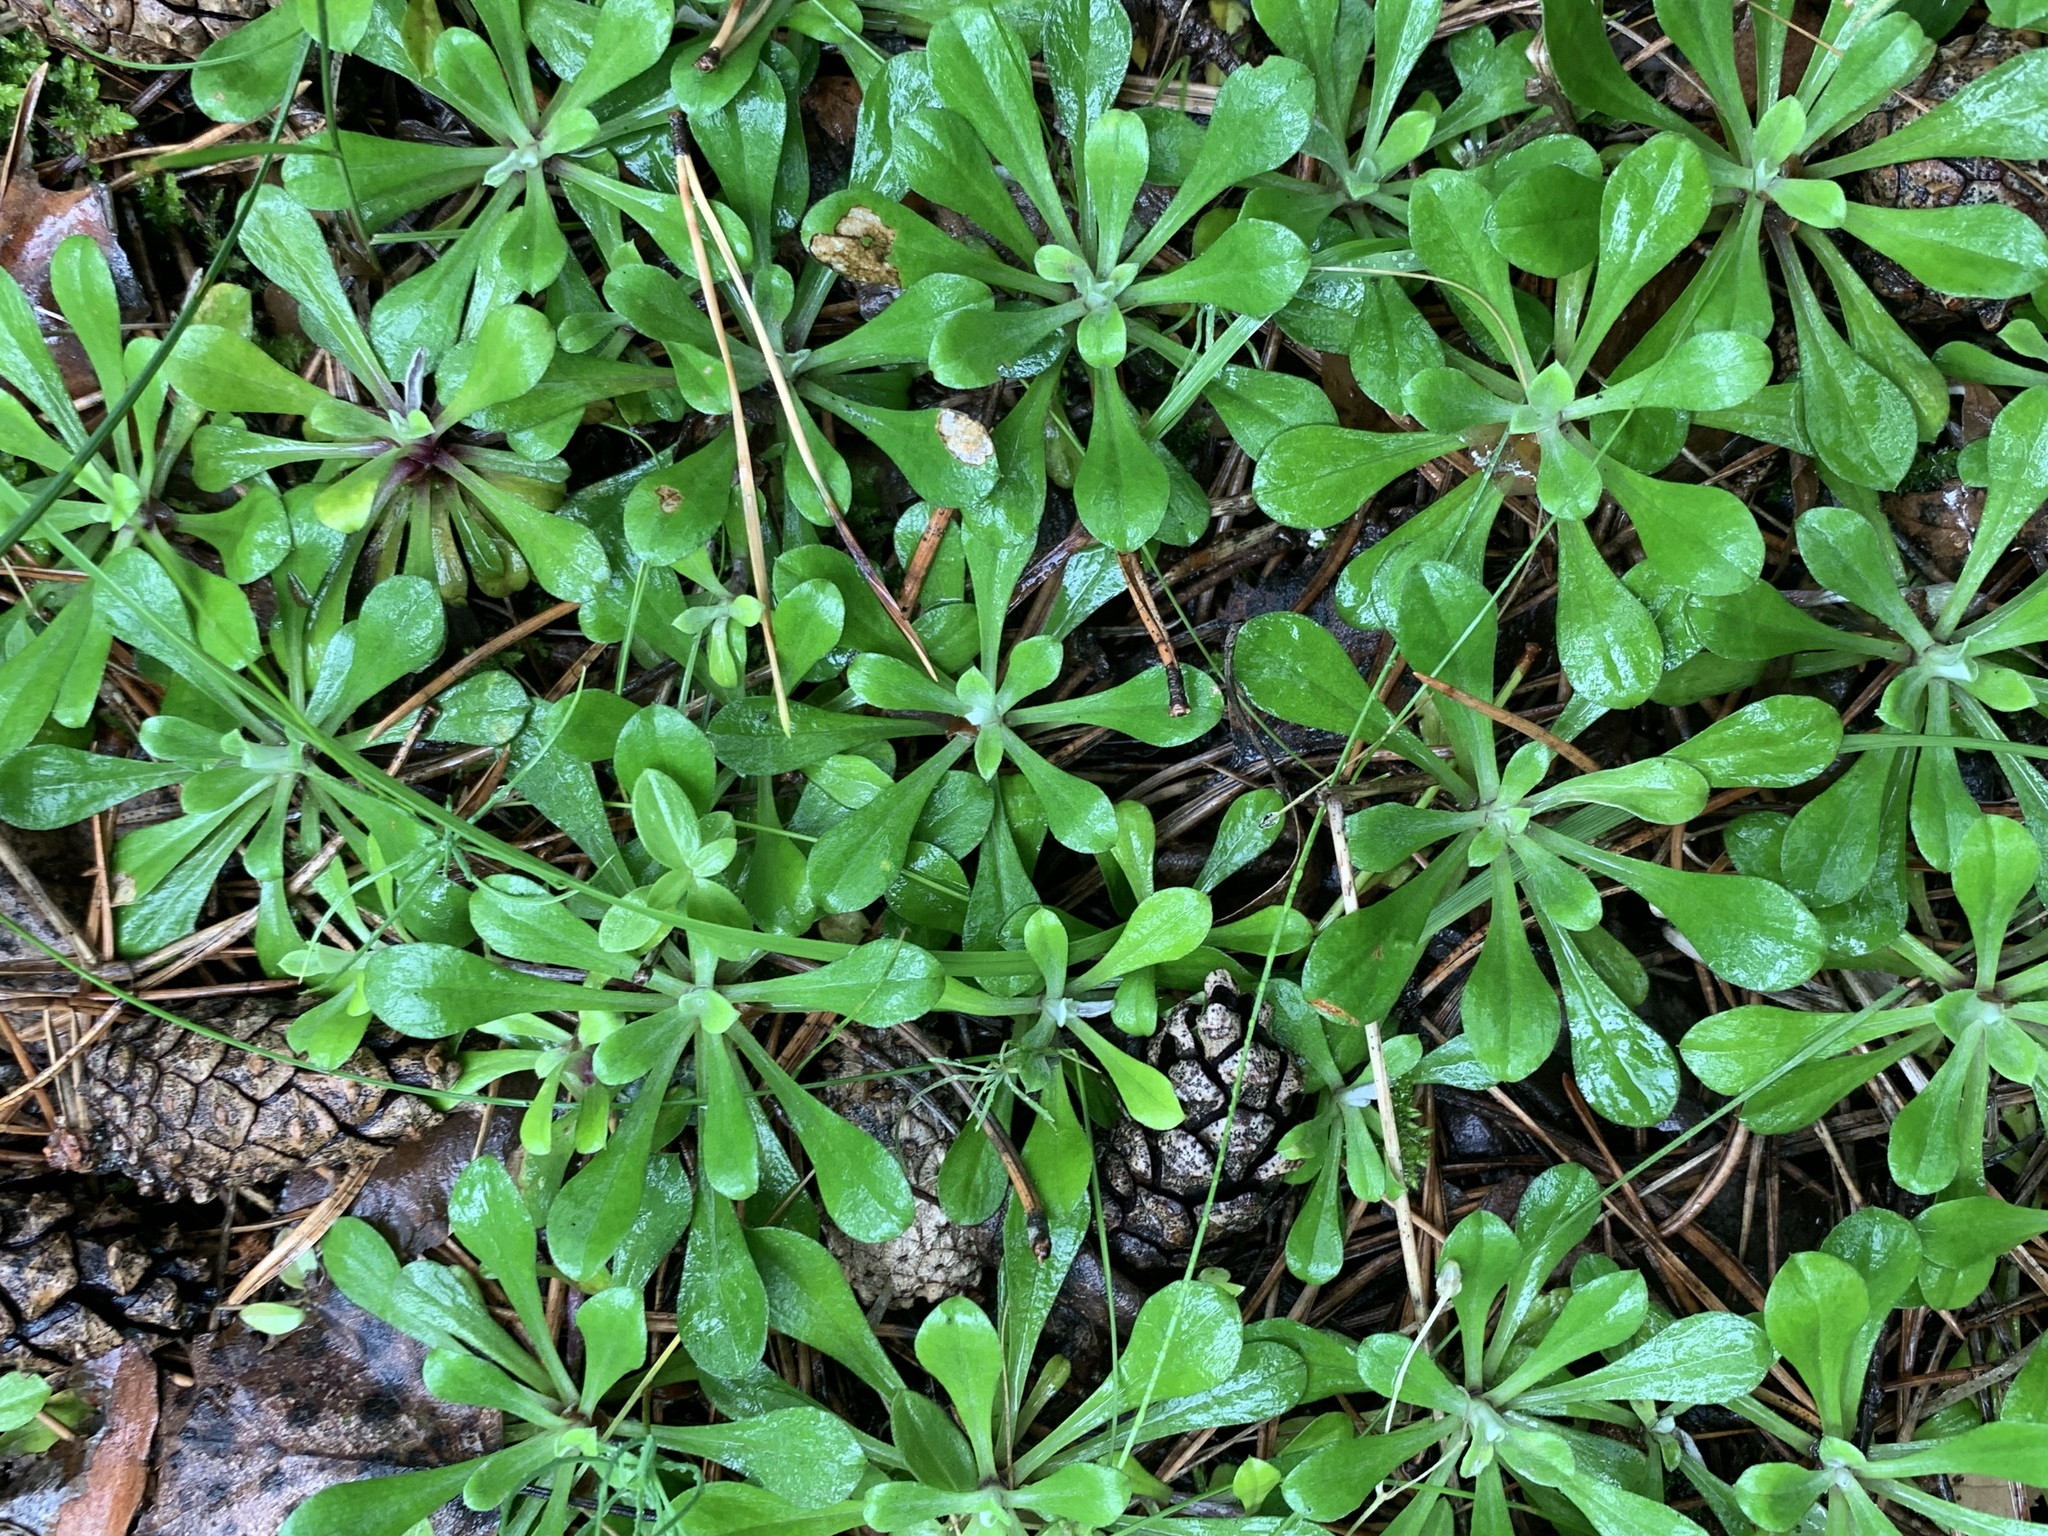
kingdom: Plantae
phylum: Tracheophyta
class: Magnoliopsida
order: Asterales
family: Asteraceae
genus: Antennaria
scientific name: Antennaria dioica
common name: Mountain everlasting
